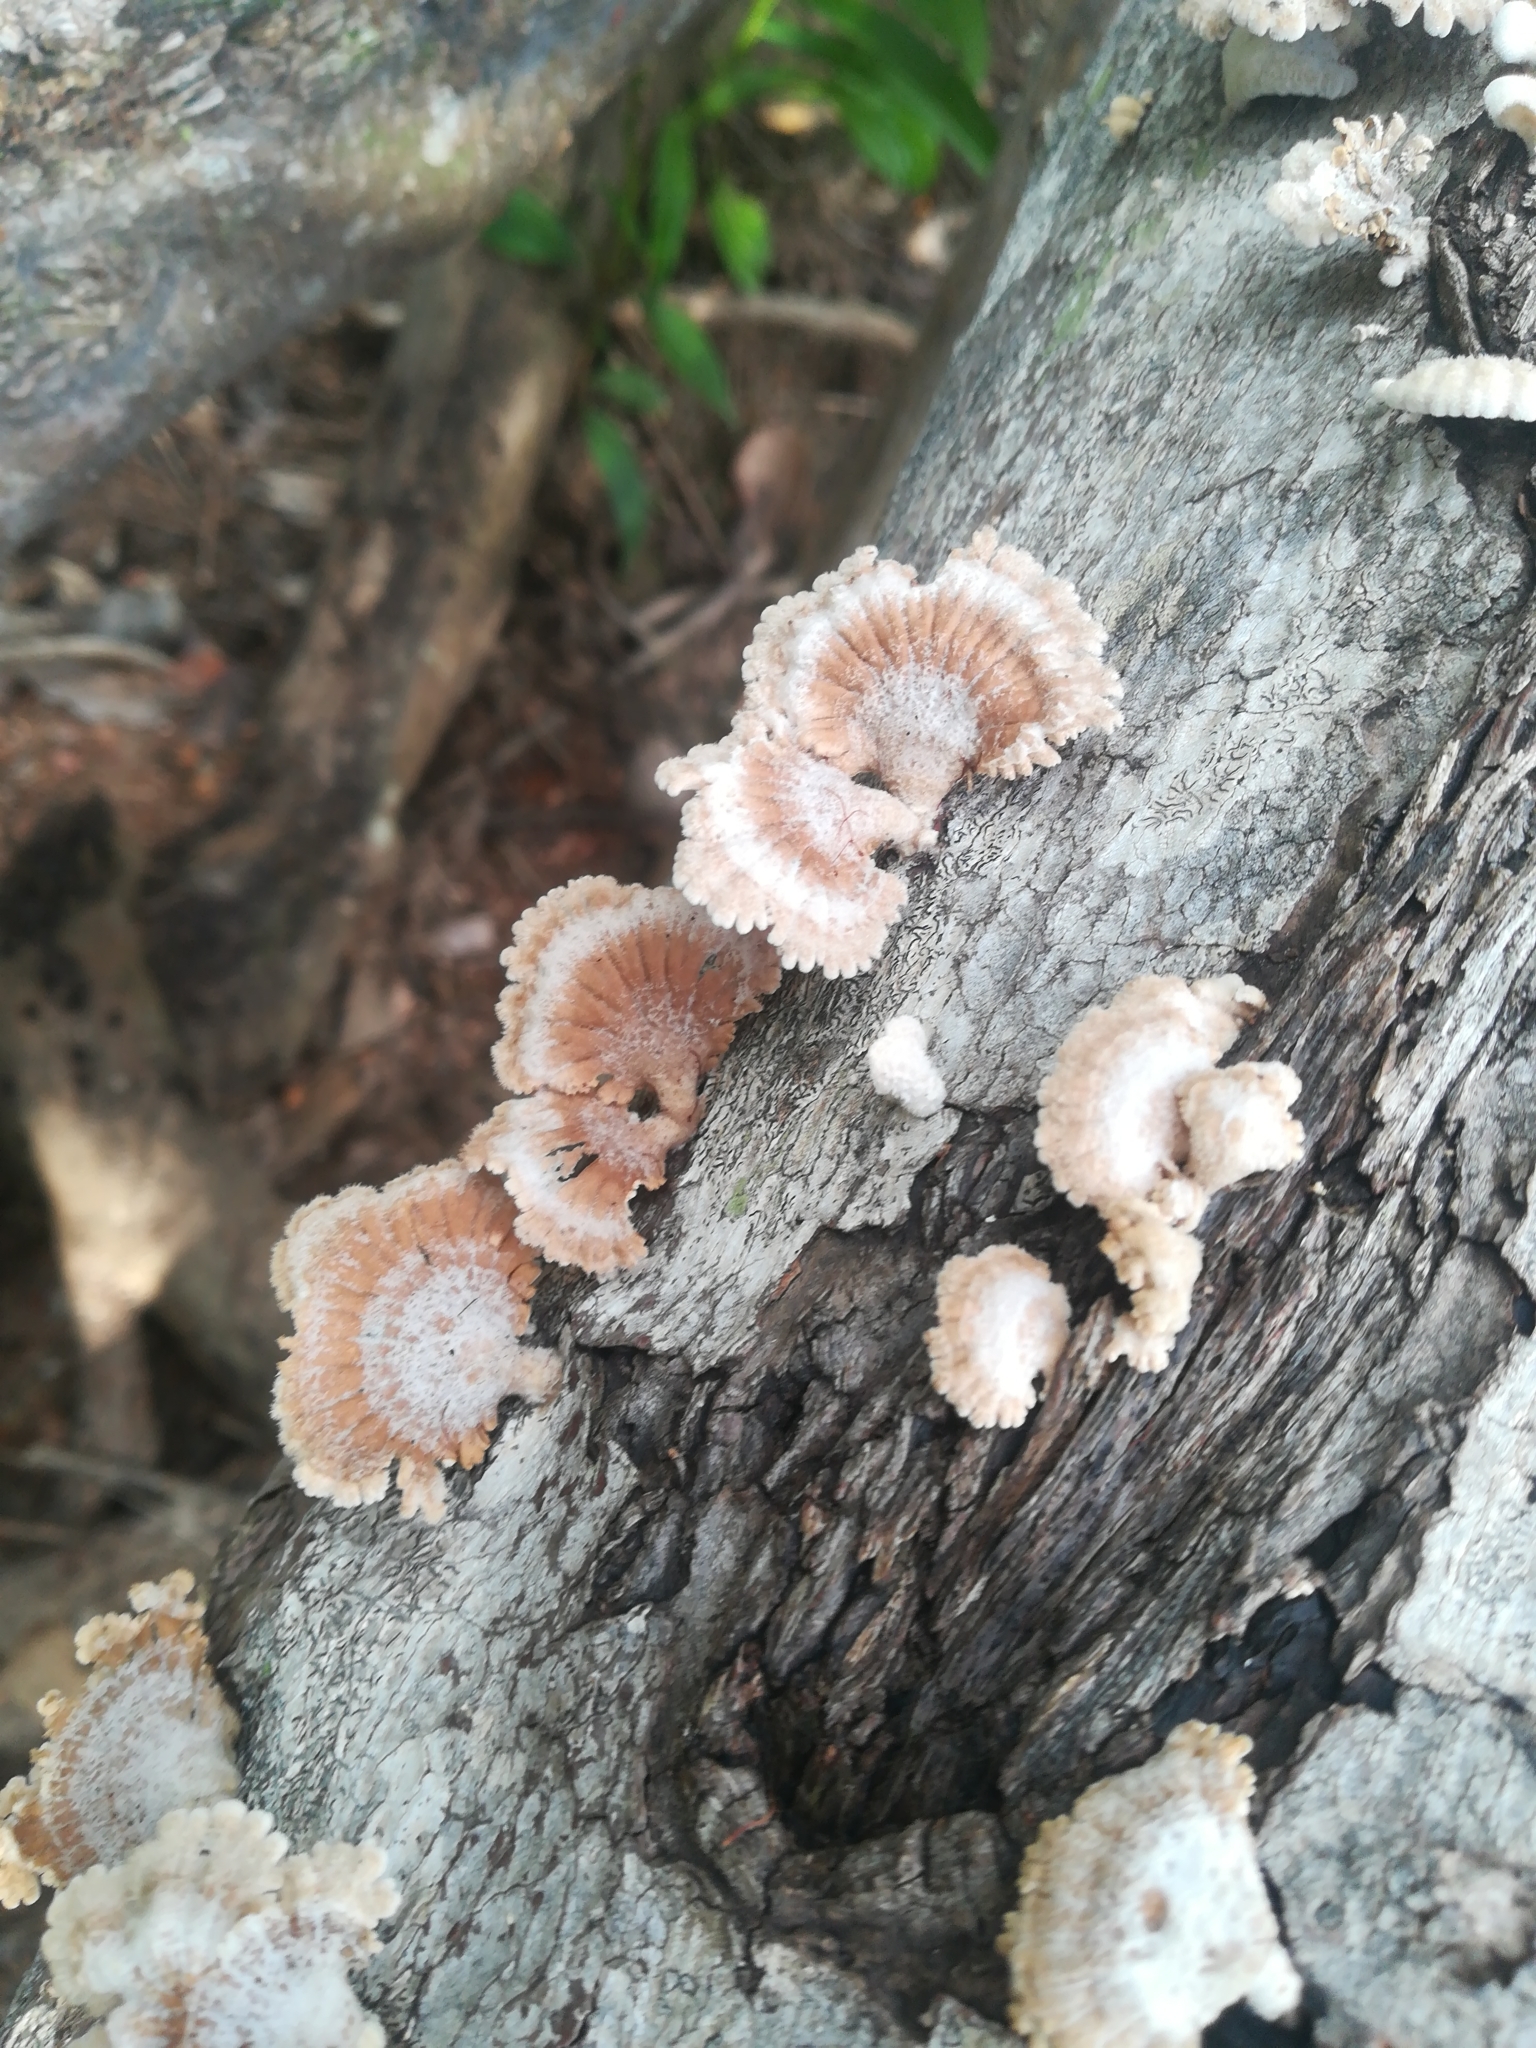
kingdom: Fungi
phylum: Basidiomycota
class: Agaricomycetes
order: Agaricales
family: Schizophyllaceae
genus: Schizophyllum
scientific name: Schizophyllum commune
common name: Common porecrust
